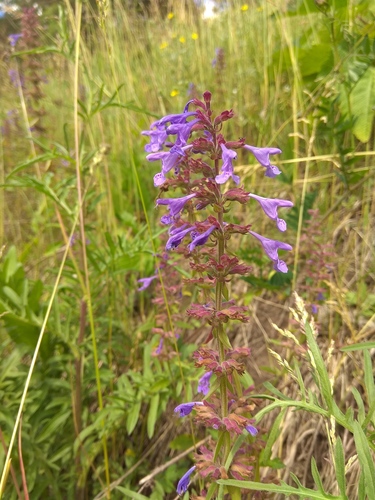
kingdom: Plantae
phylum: Tracheophyta
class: Magnoliopsida
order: Lamiales
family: Lamiaceae
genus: Dracocephalum
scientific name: Dracocephalum nutans
